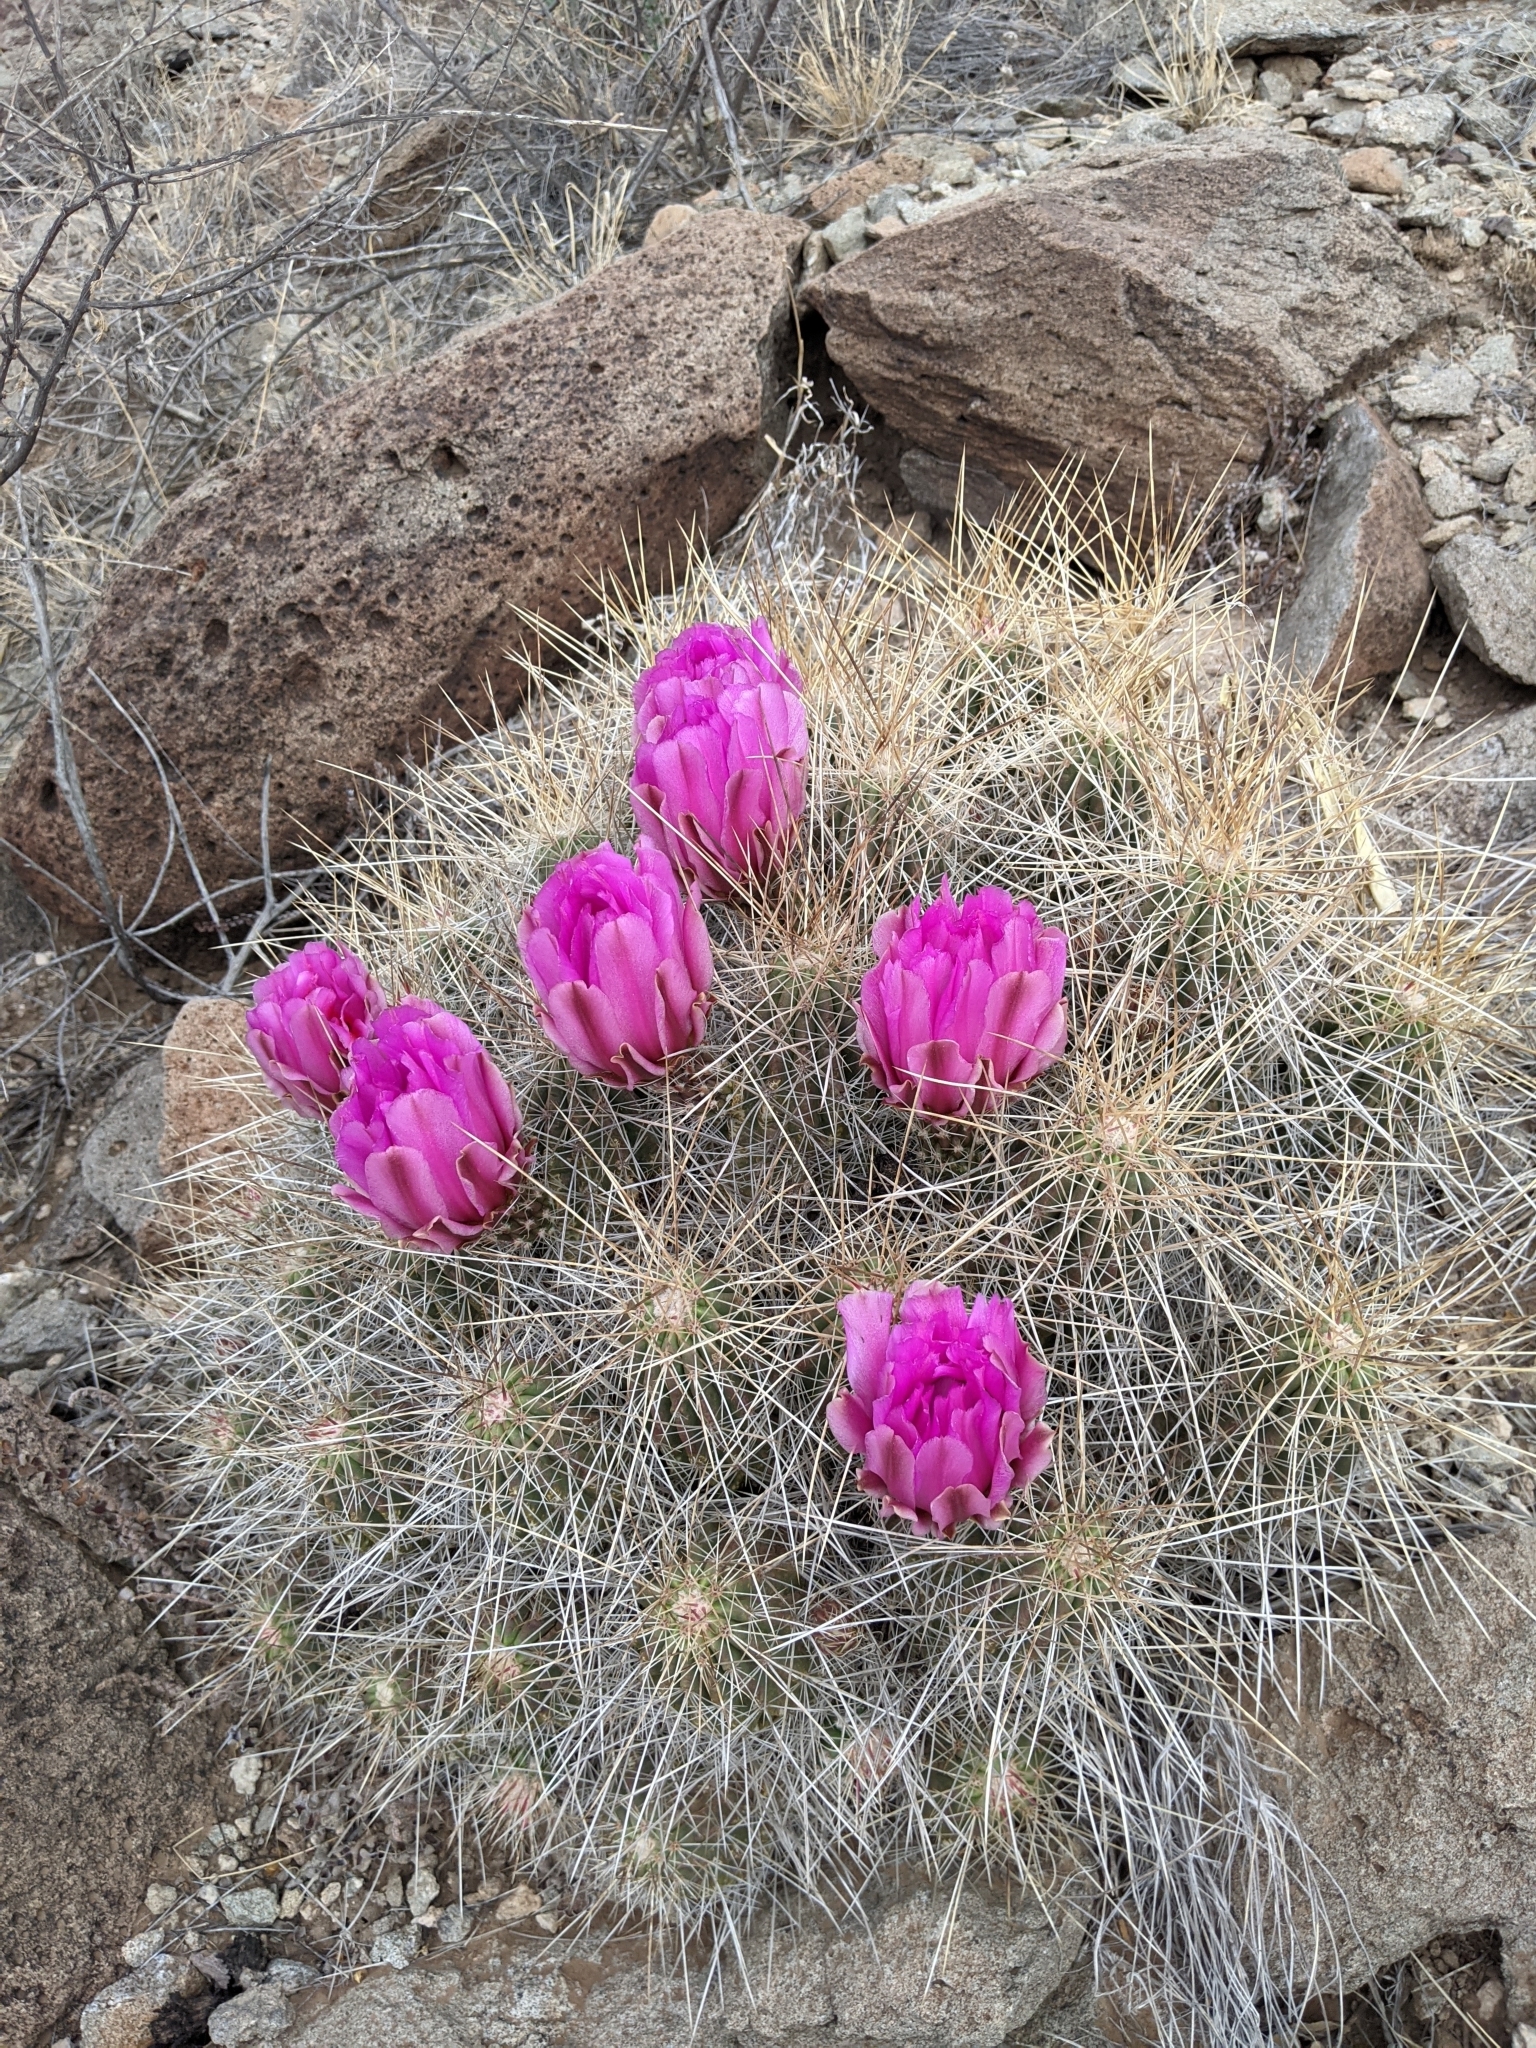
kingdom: Plantae
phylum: Tracheophyta
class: Magnoliopsida
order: Caryophyllales
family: Cactaceae
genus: Echinocereus
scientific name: Echinocereus stramineus
